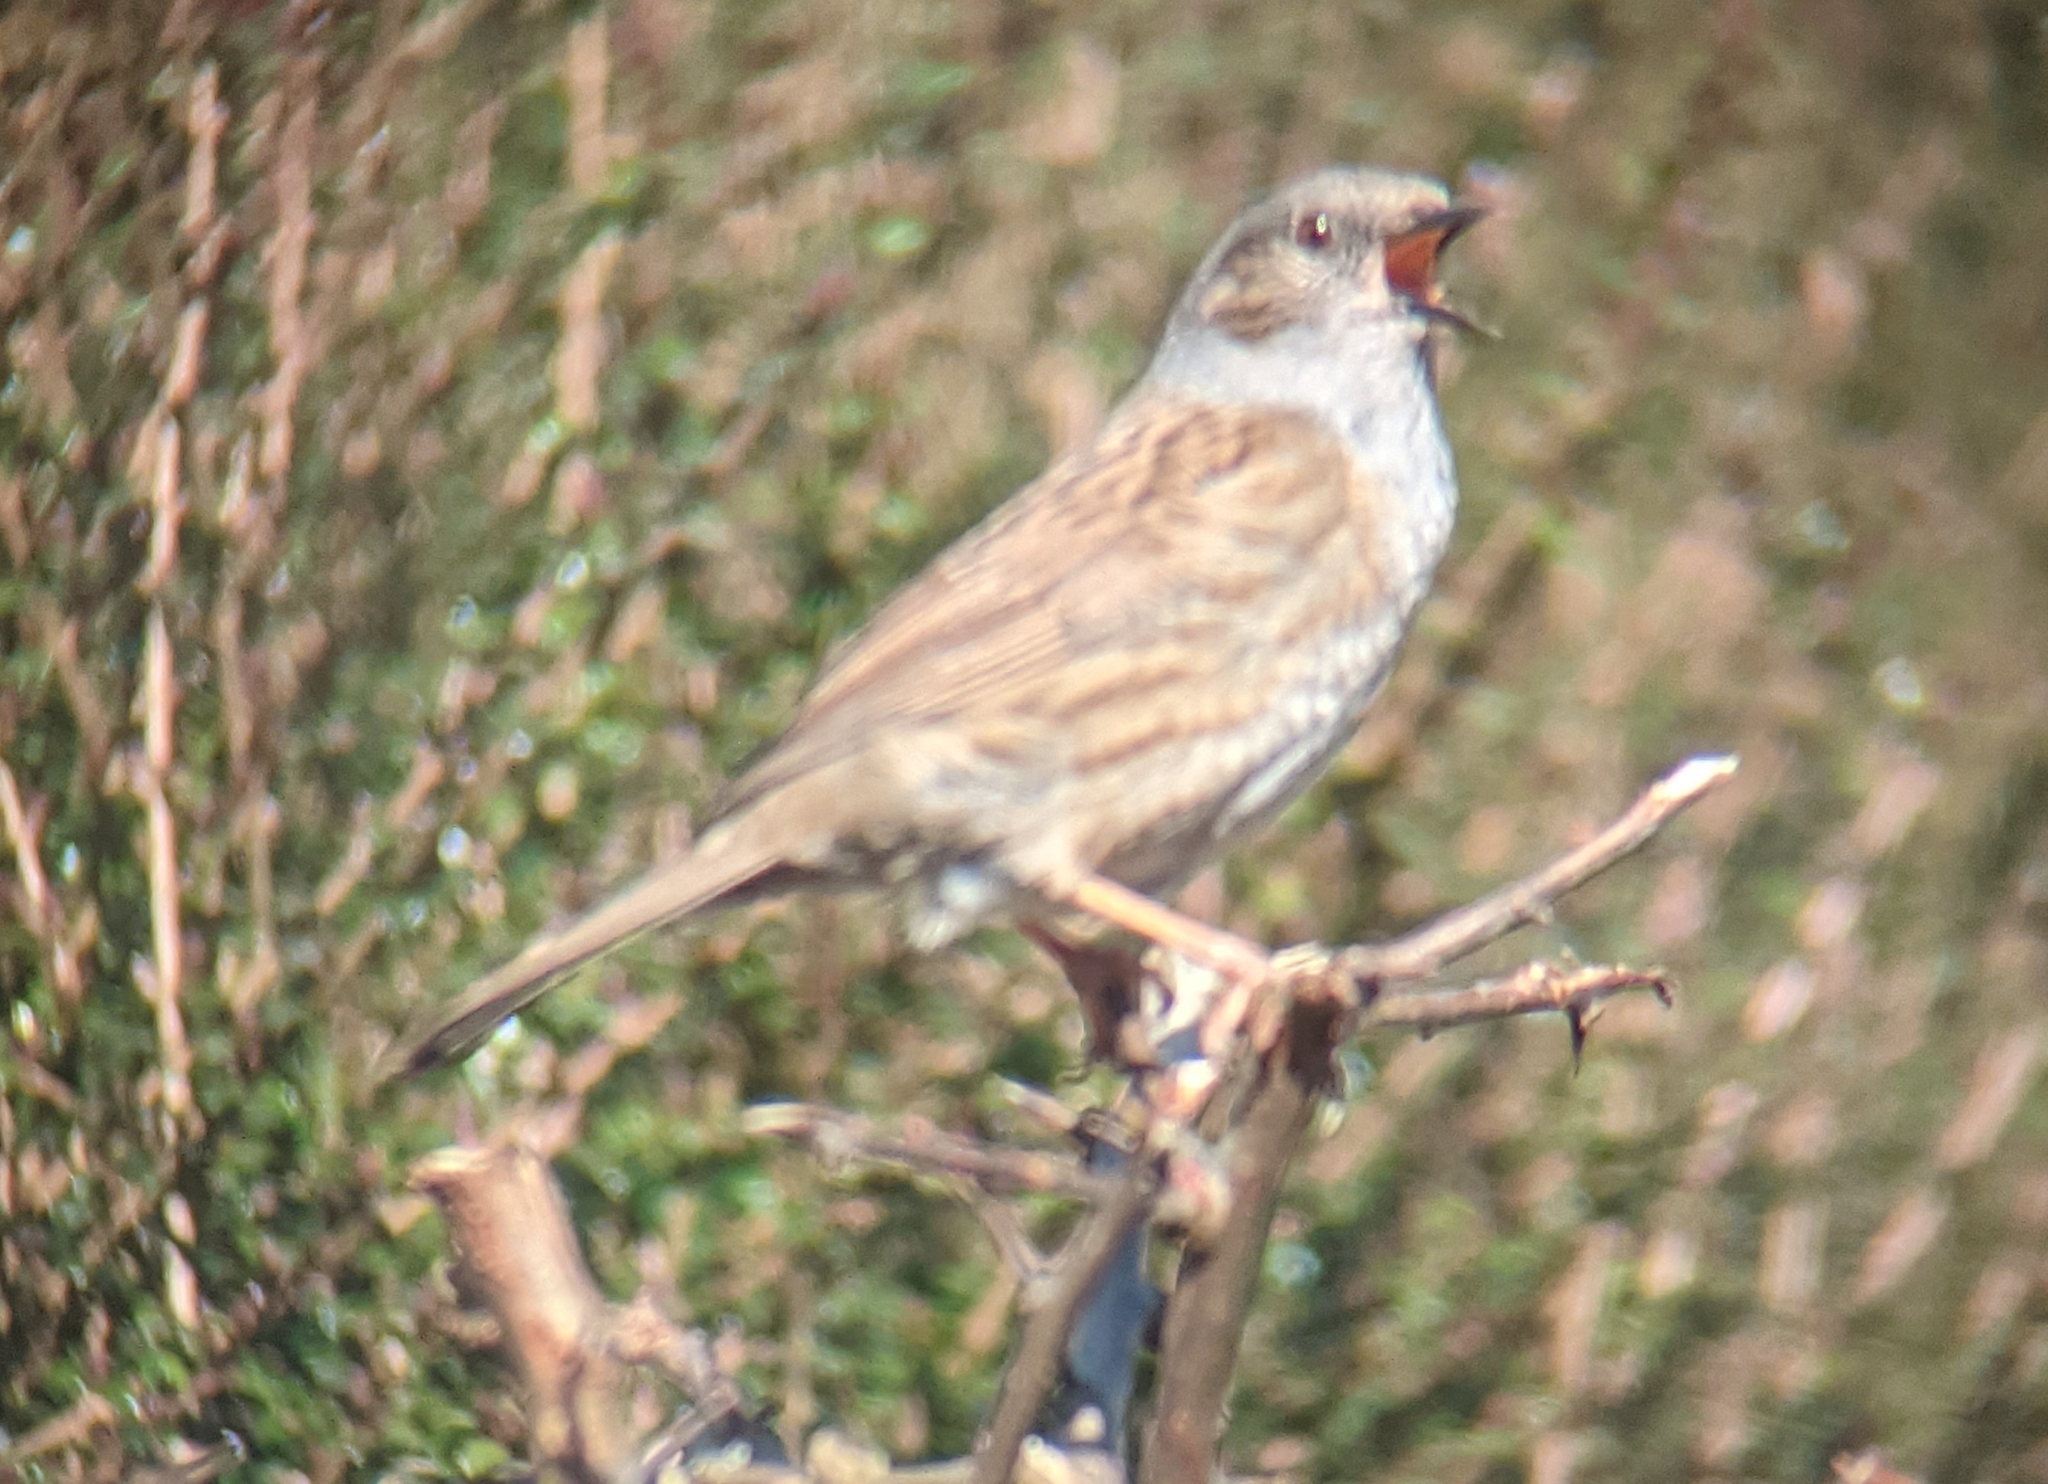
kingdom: Animalia
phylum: Chordata
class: Aves
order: Passeriformes
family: Prunellidae
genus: Prunella
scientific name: Prunella modularis
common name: Dunnock
